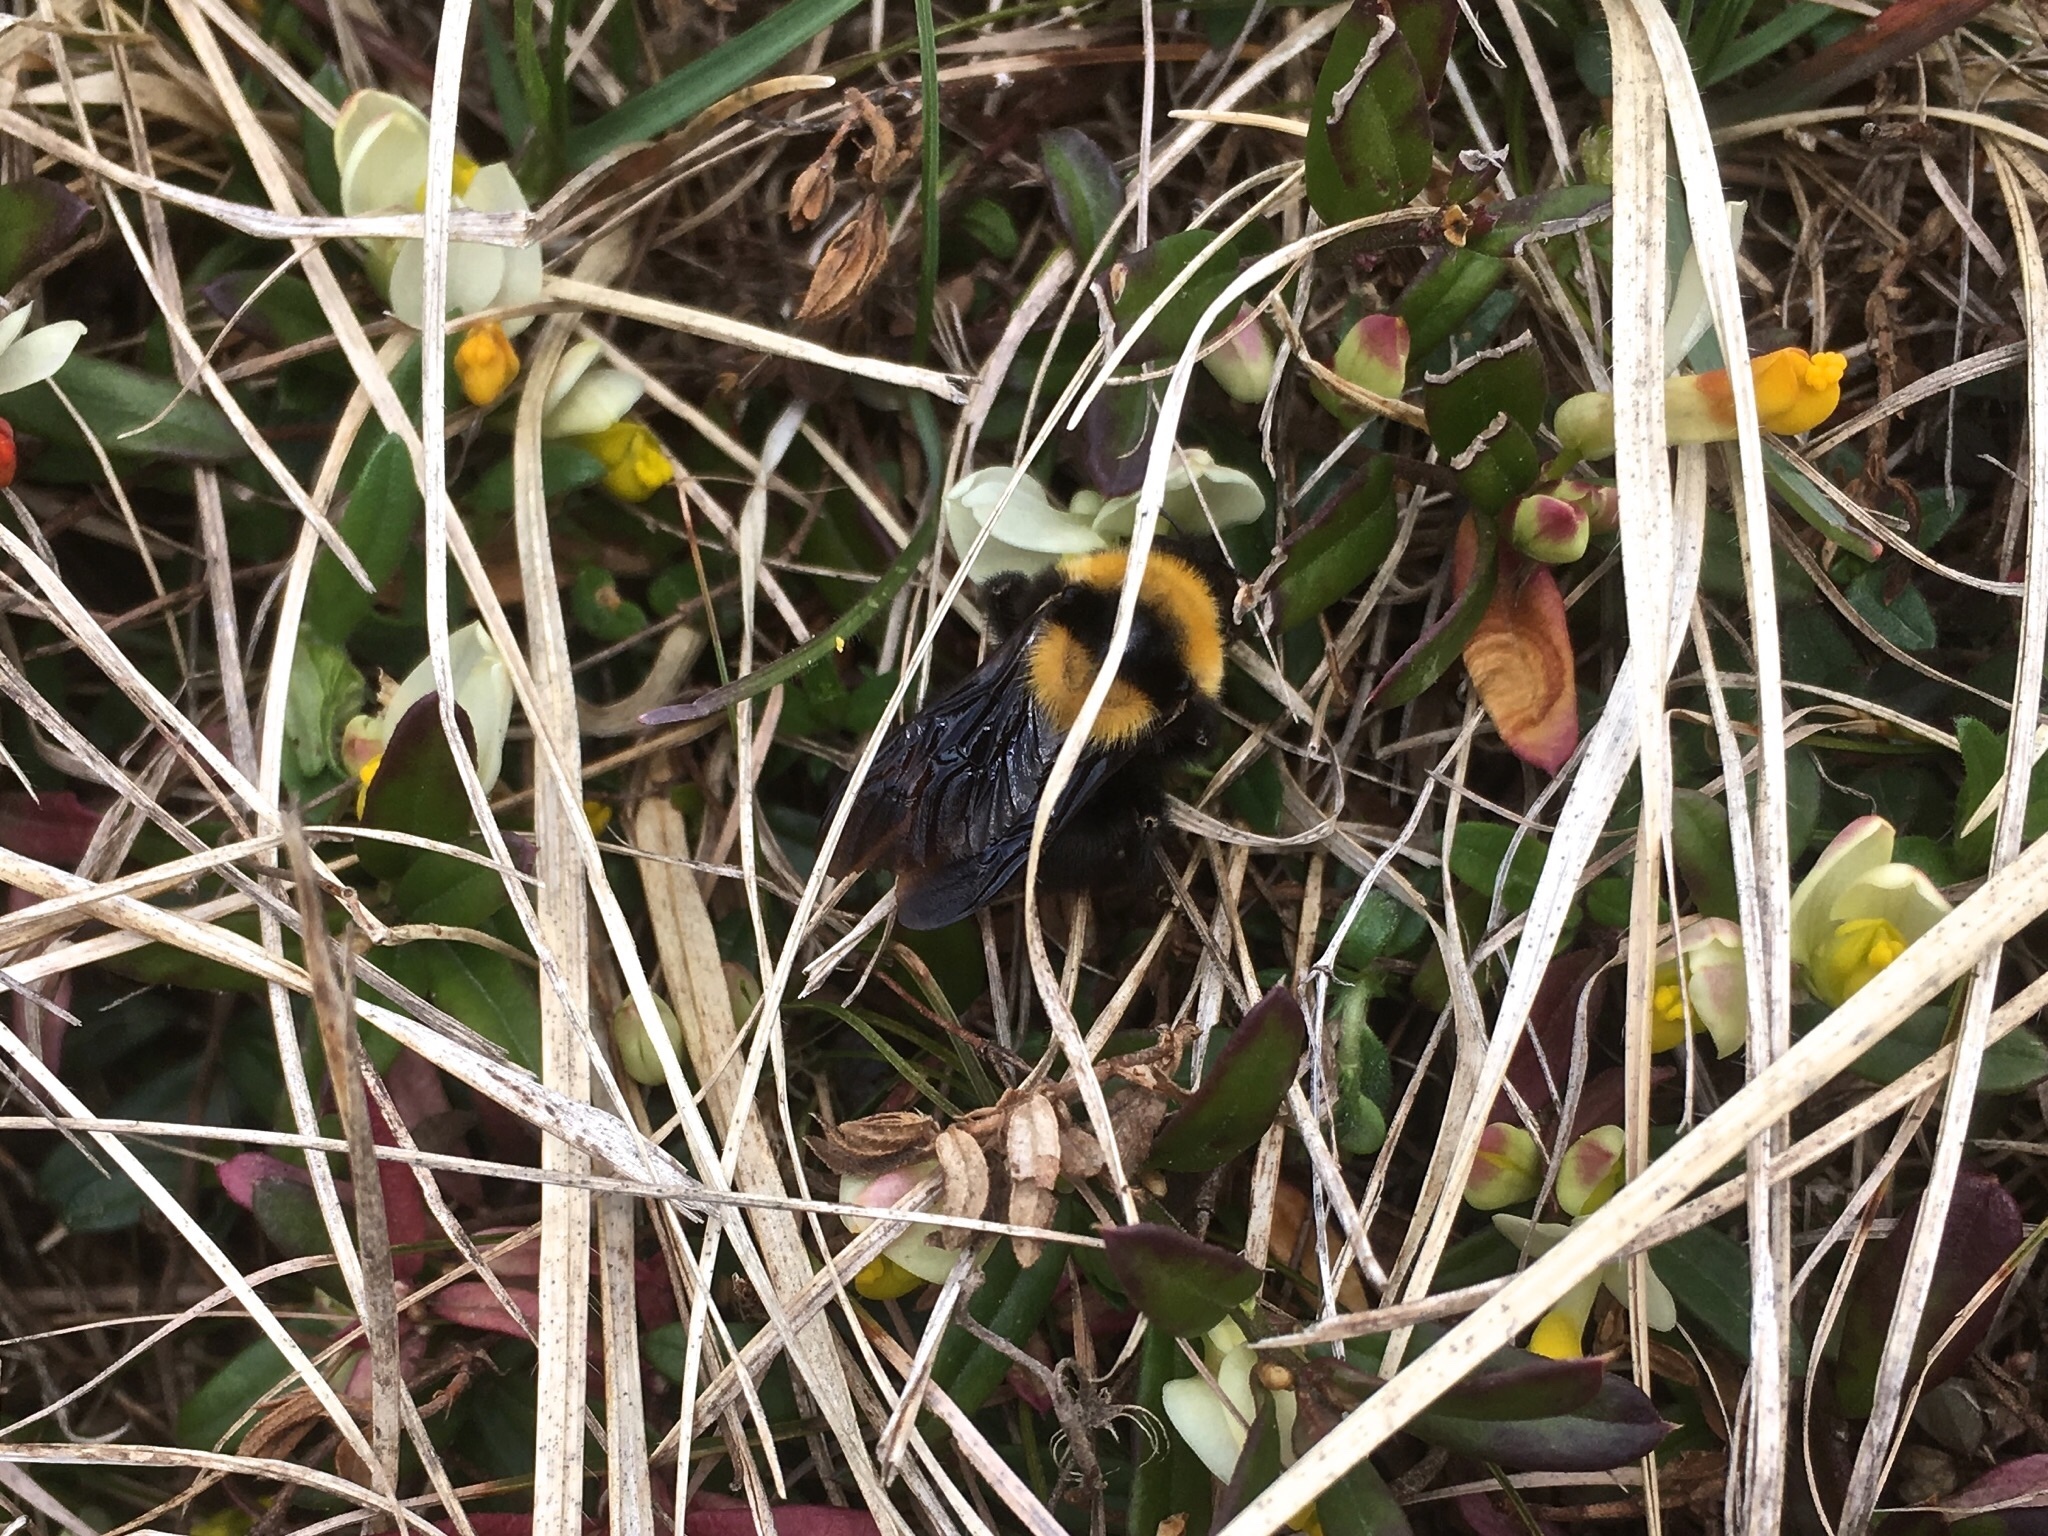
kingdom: Animalia
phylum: Arthropoda
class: Insecta
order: Hymenoptera
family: Apidae
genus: Bombus
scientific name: Bombus argillaceus
